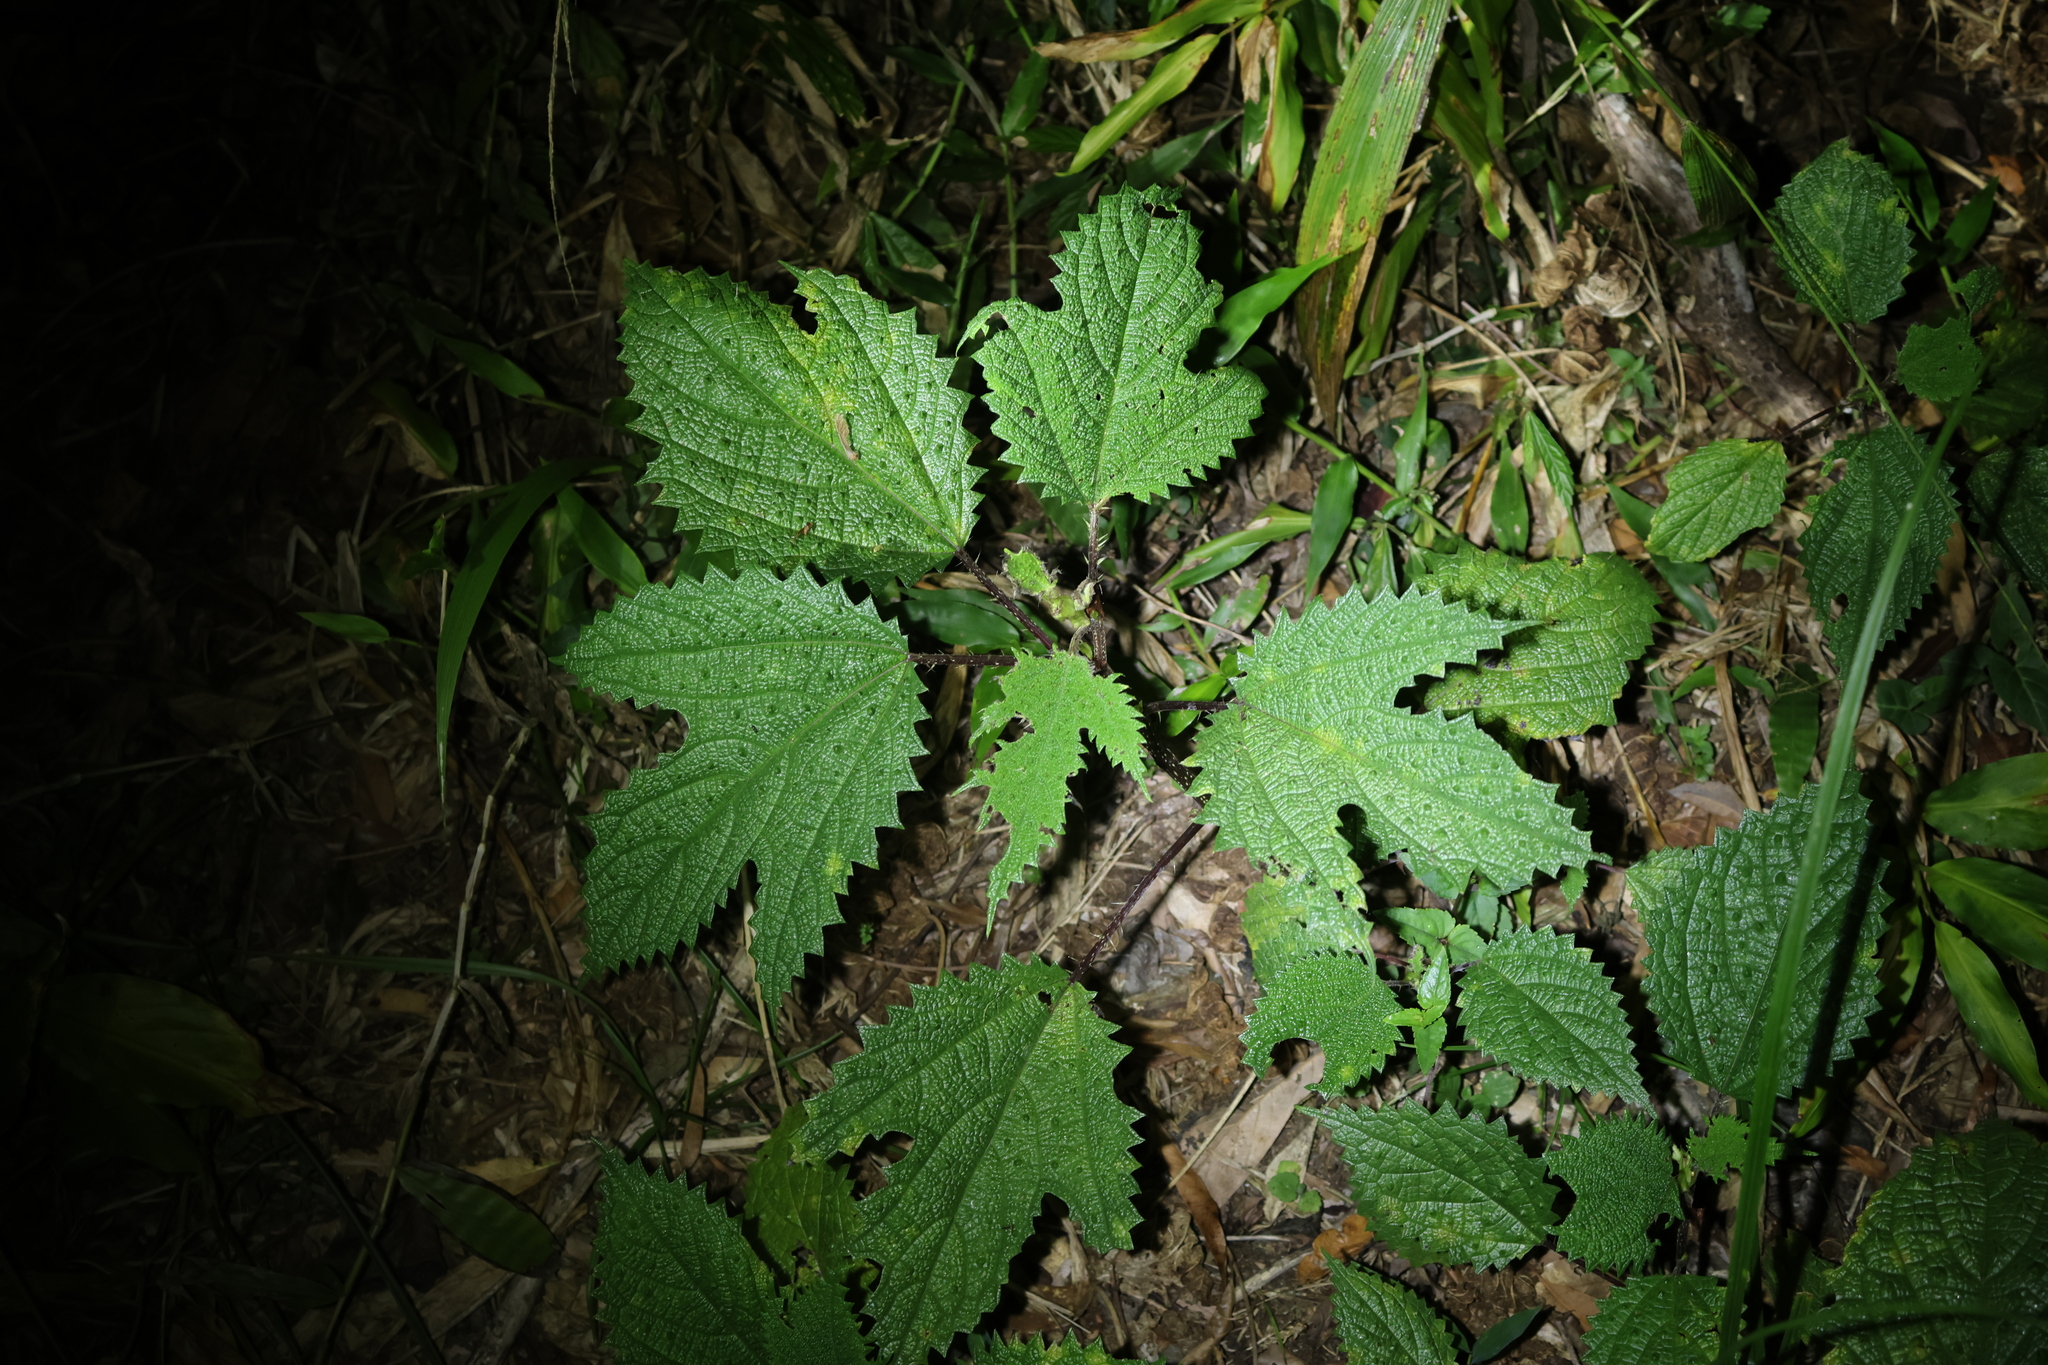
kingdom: Plantae
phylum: Tracheophyta
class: Magnoliopsida
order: Rosales
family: Urticaceae
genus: Girardinia
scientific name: Girardinia diversifolia
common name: Himalayan-nettle
